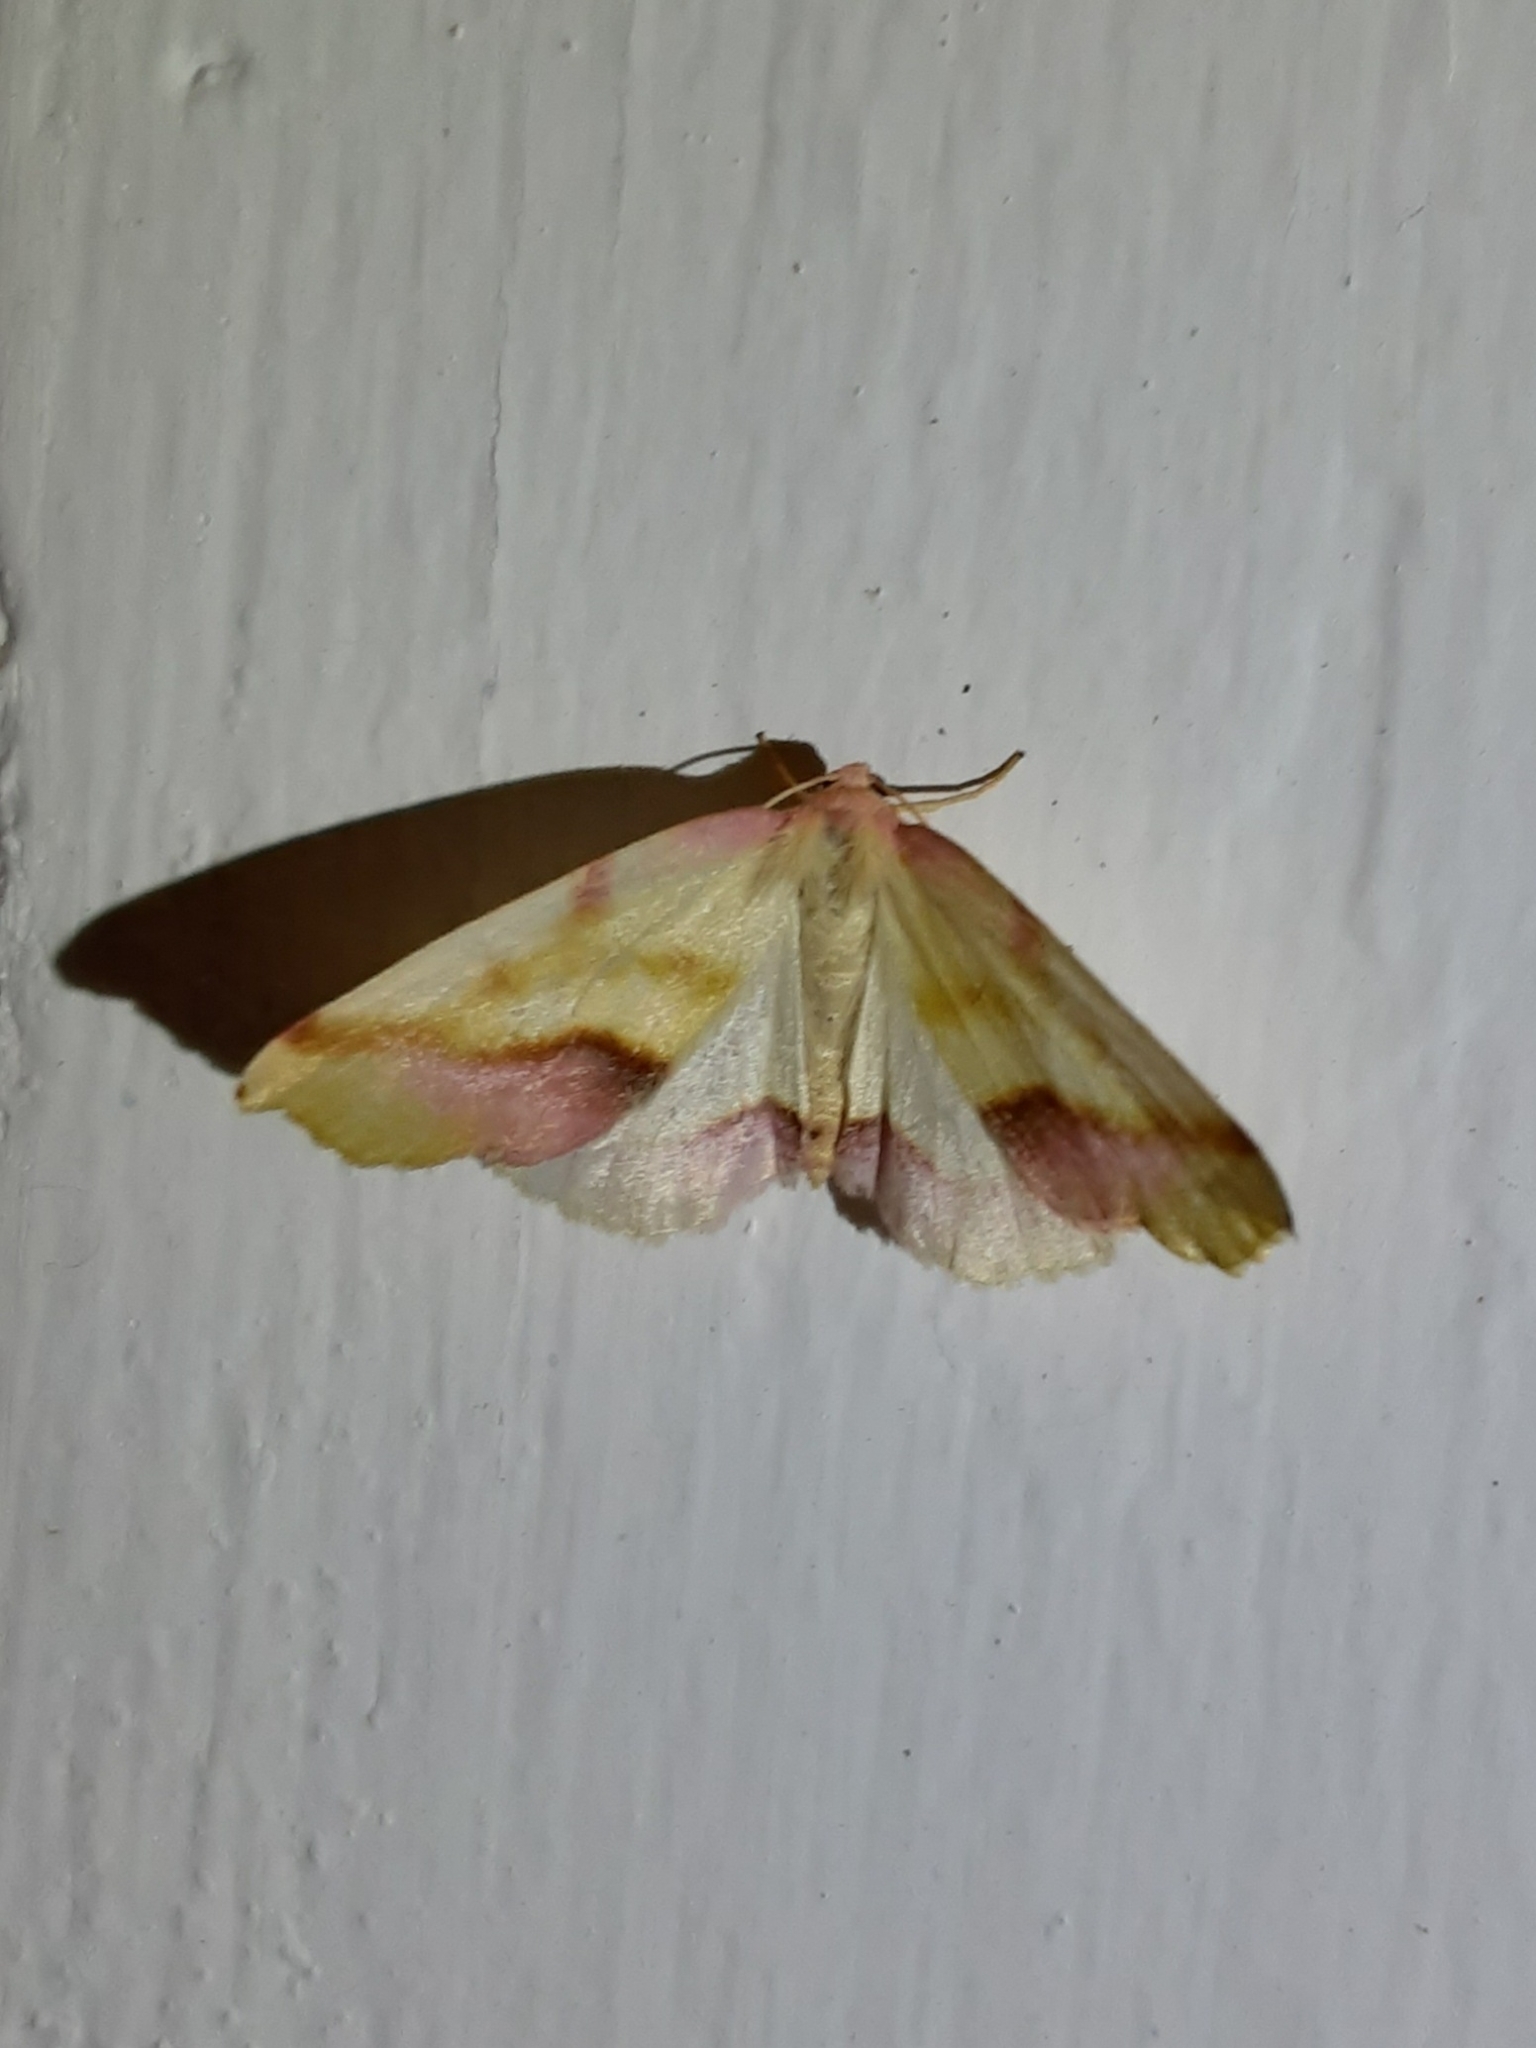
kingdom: Animalia
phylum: Arthropoda
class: Insecta
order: Lepidoptera
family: Geometridae
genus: Plagodis
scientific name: Plagodis serinaria
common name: Lemon plagodis
